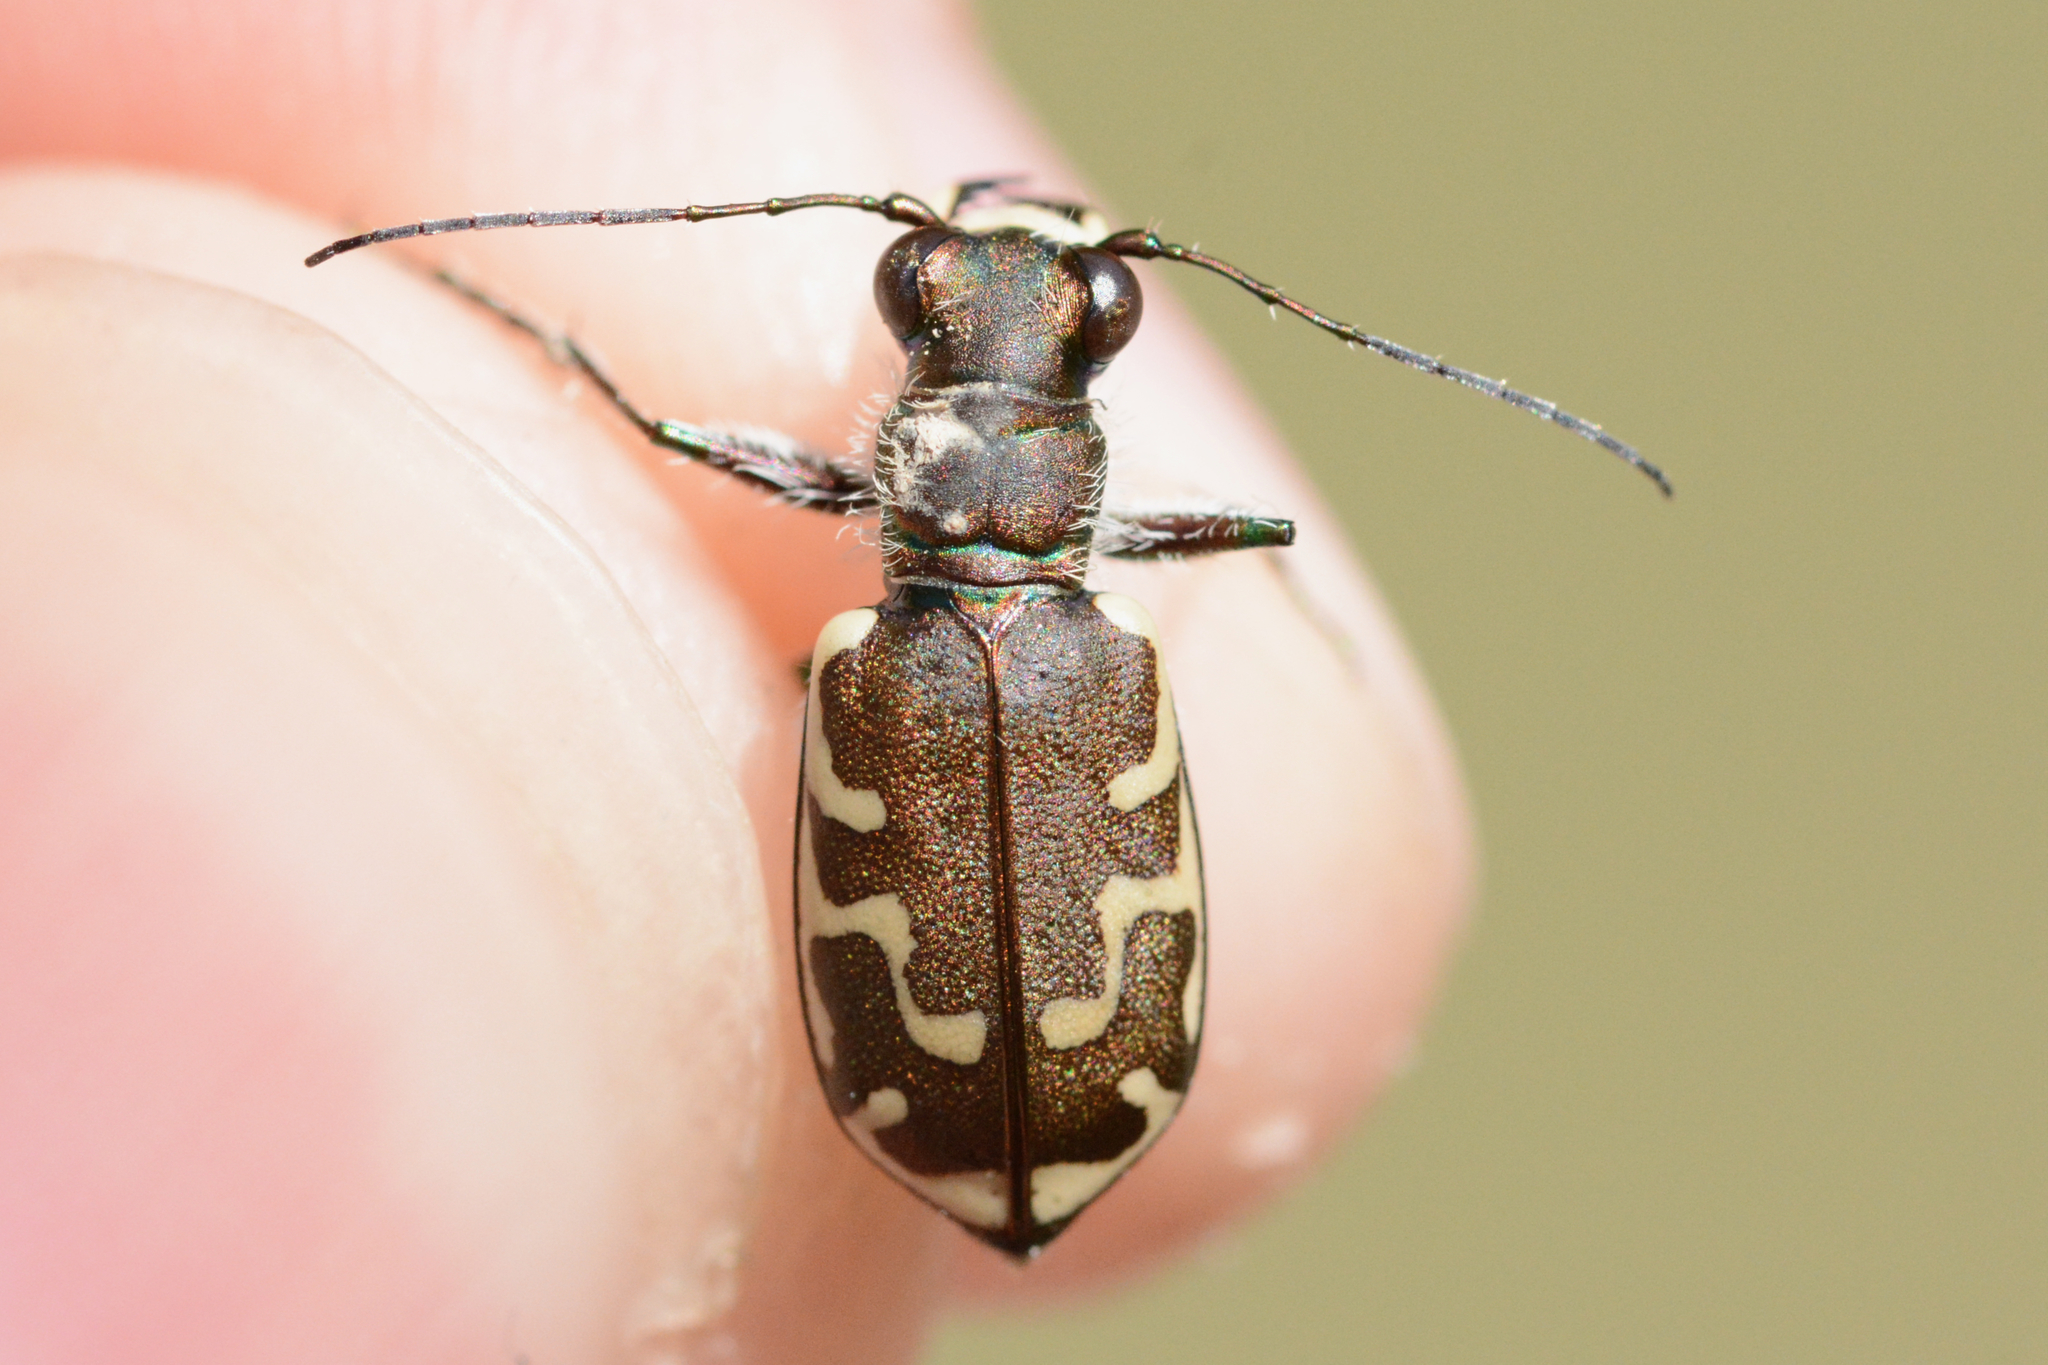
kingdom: Animalia
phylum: Arthropoda
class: Insecta
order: Coleoptera
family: Carabidae
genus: Cicindela
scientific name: Cicindela repanda
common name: Bronzed tiger beetle
